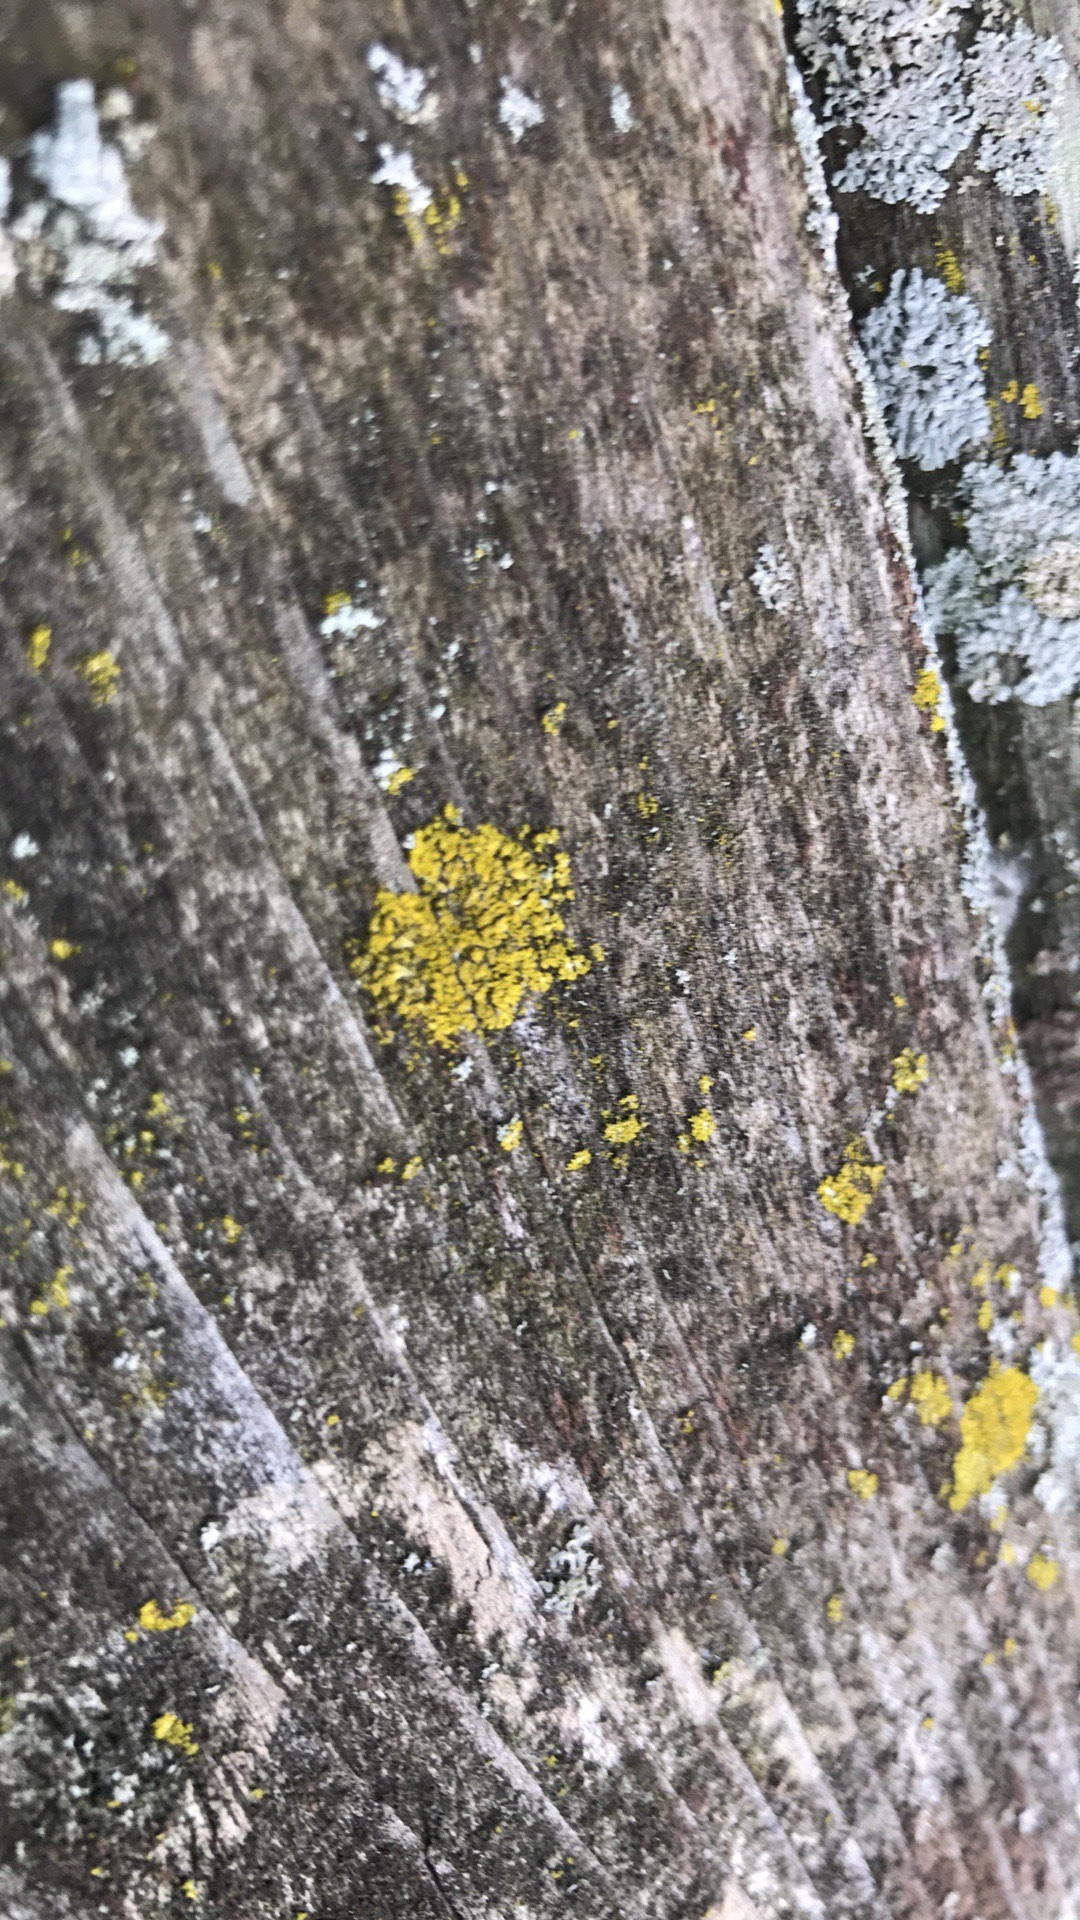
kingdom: Fungi
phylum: Ascomycota
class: Candelariomycetes
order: Candelariales
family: Candelariaceae
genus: Candelaria
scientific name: Candelaria concolor
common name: Candleflame lichen
